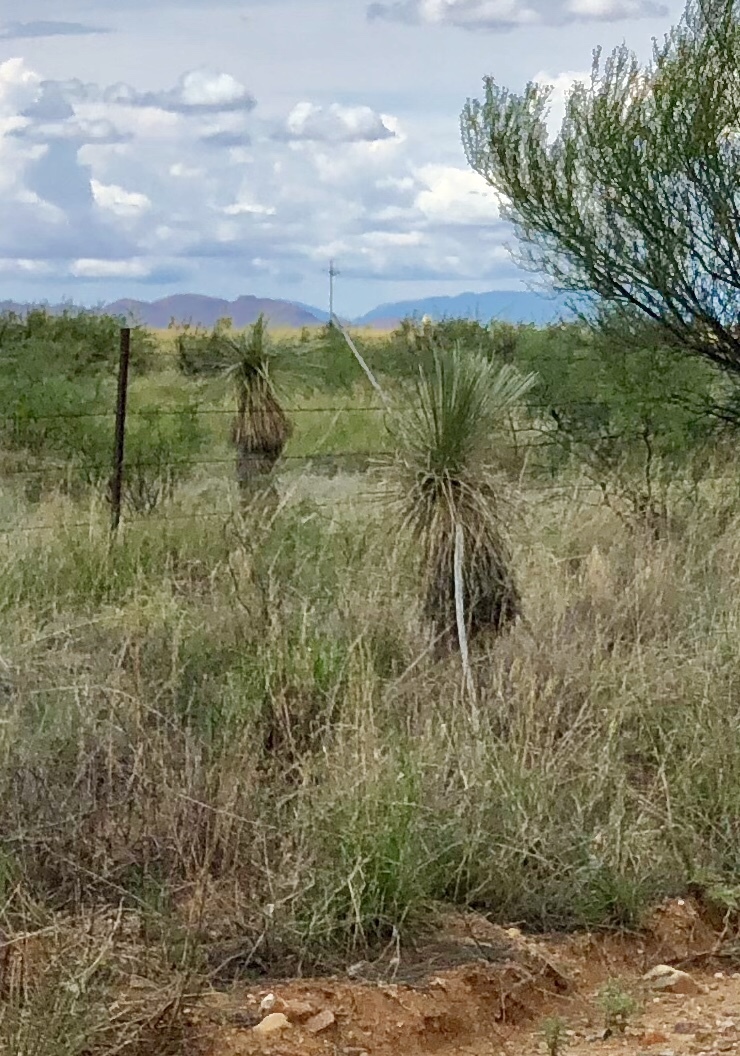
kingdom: Plantae
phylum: Tracheophyta
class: Liliopsida
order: Asparagales
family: Asparagaceae
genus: Yucca
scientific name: Yucca elata
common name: Palmella
